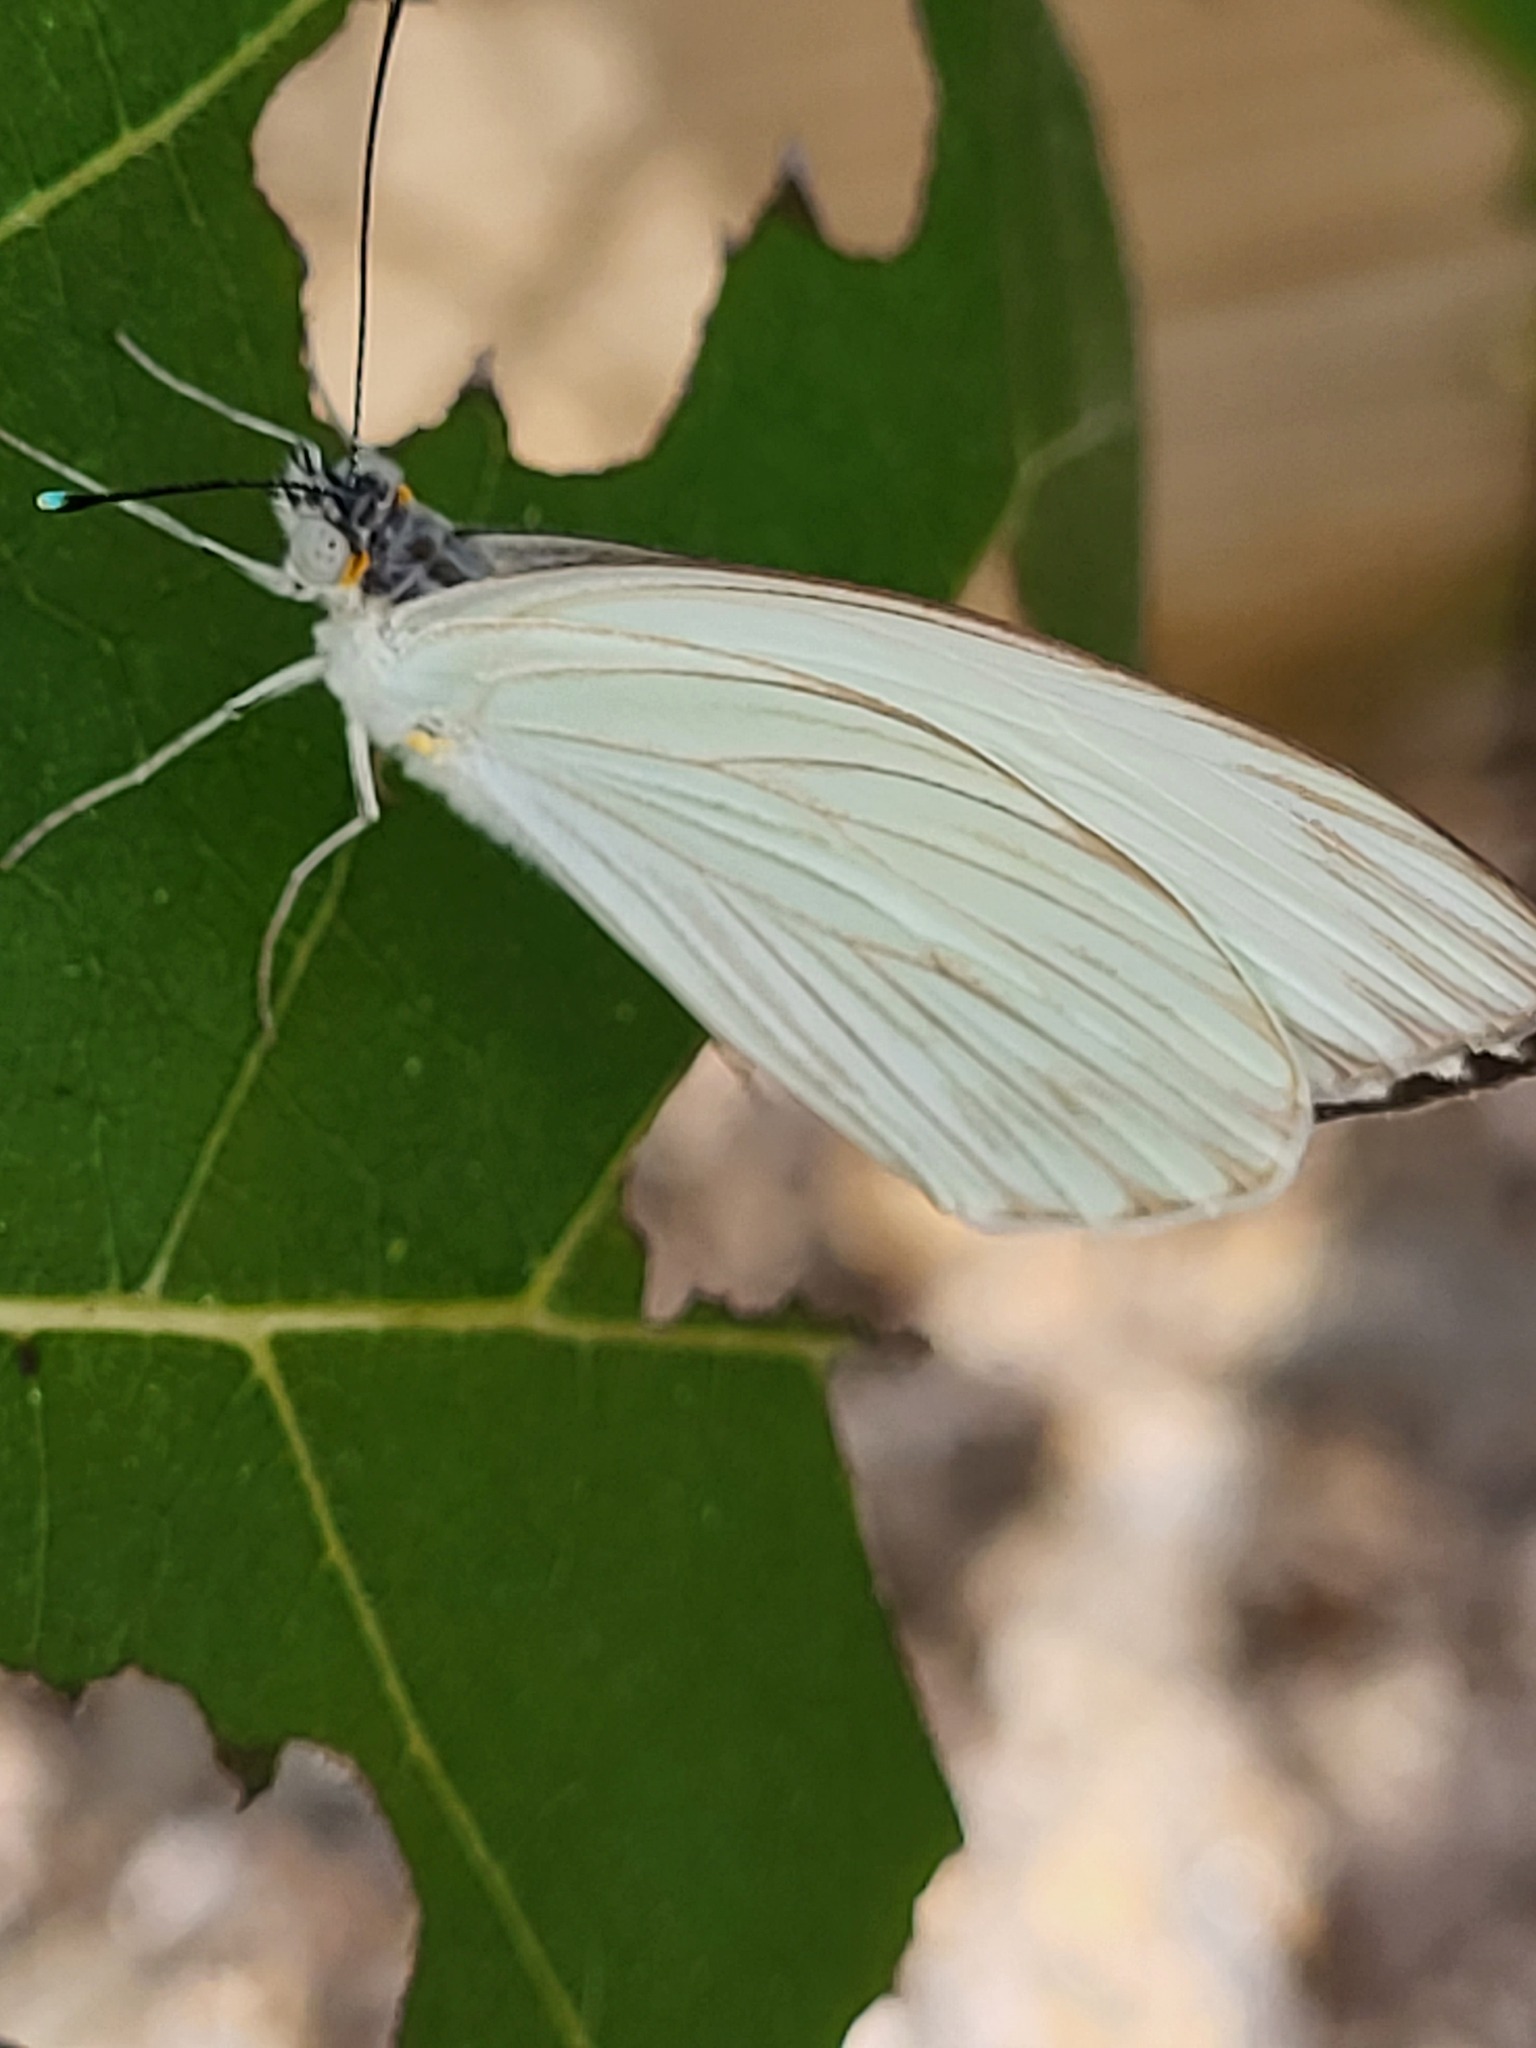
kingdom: Animalia
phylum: Arthropoda
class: Insecta
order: Lepidoptera
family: Pieridae
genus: Ascia
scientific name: Ascia monuste
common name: Great southern white
